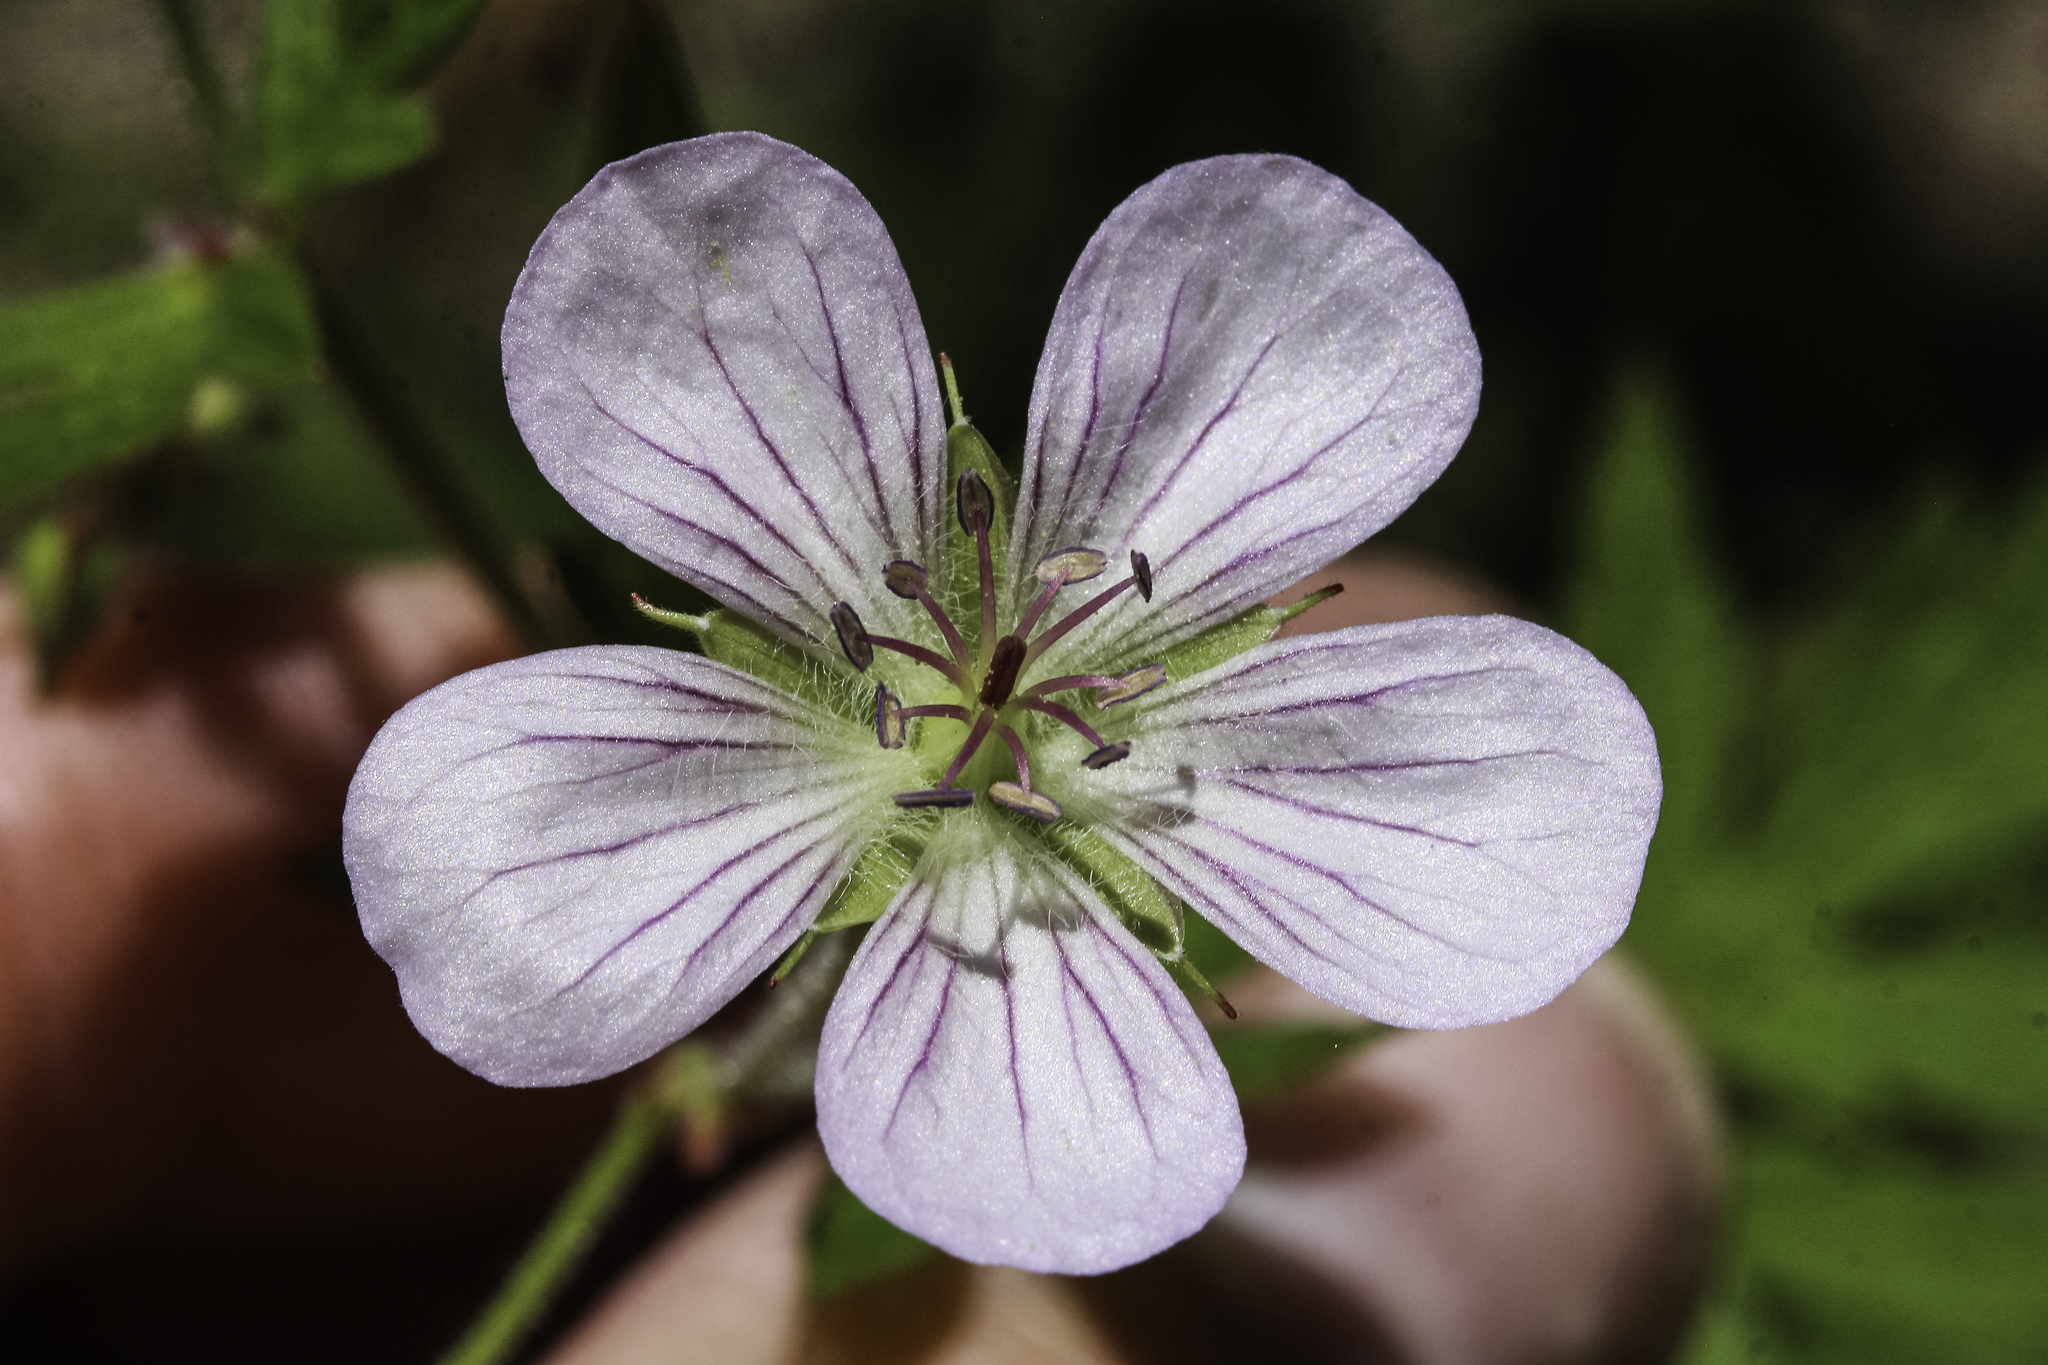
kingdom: Plantae
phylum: Tracheophyta
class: Magnoliopsida
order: Geraniales
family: Geraniaceae
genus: Geranium
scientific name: Geranium richardsonii
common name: Richardson's crane's-bill
